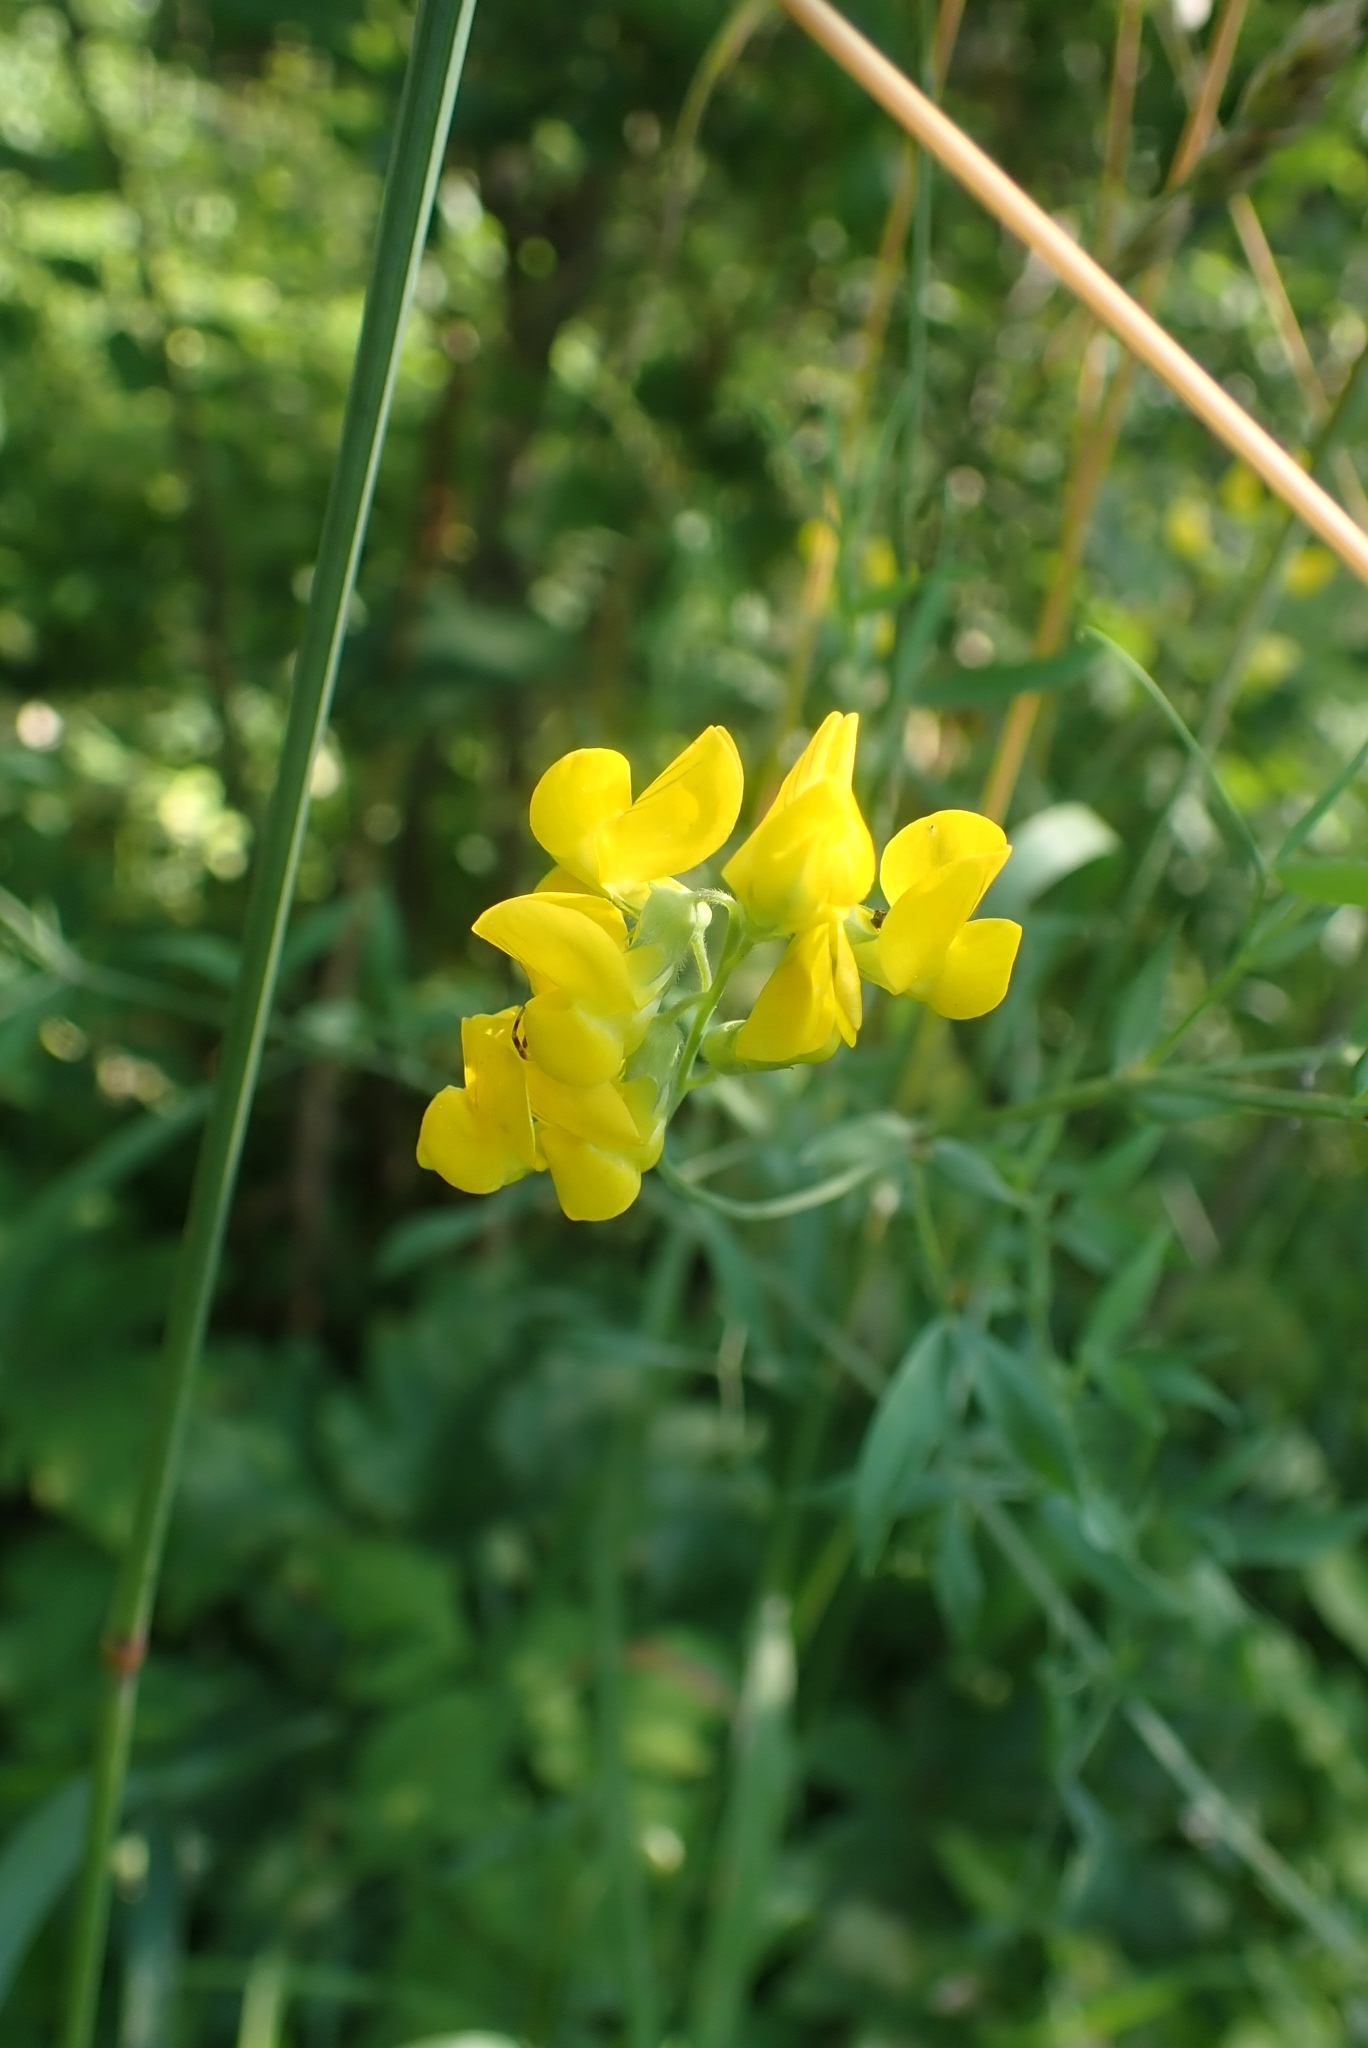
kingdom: Plantae
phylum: Tracheophyta
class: Magnoliopsida
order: Fabales
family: Fabaceae
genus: Lathyrus
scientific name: Lathyrus pratensis
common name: Meadow vetchling
